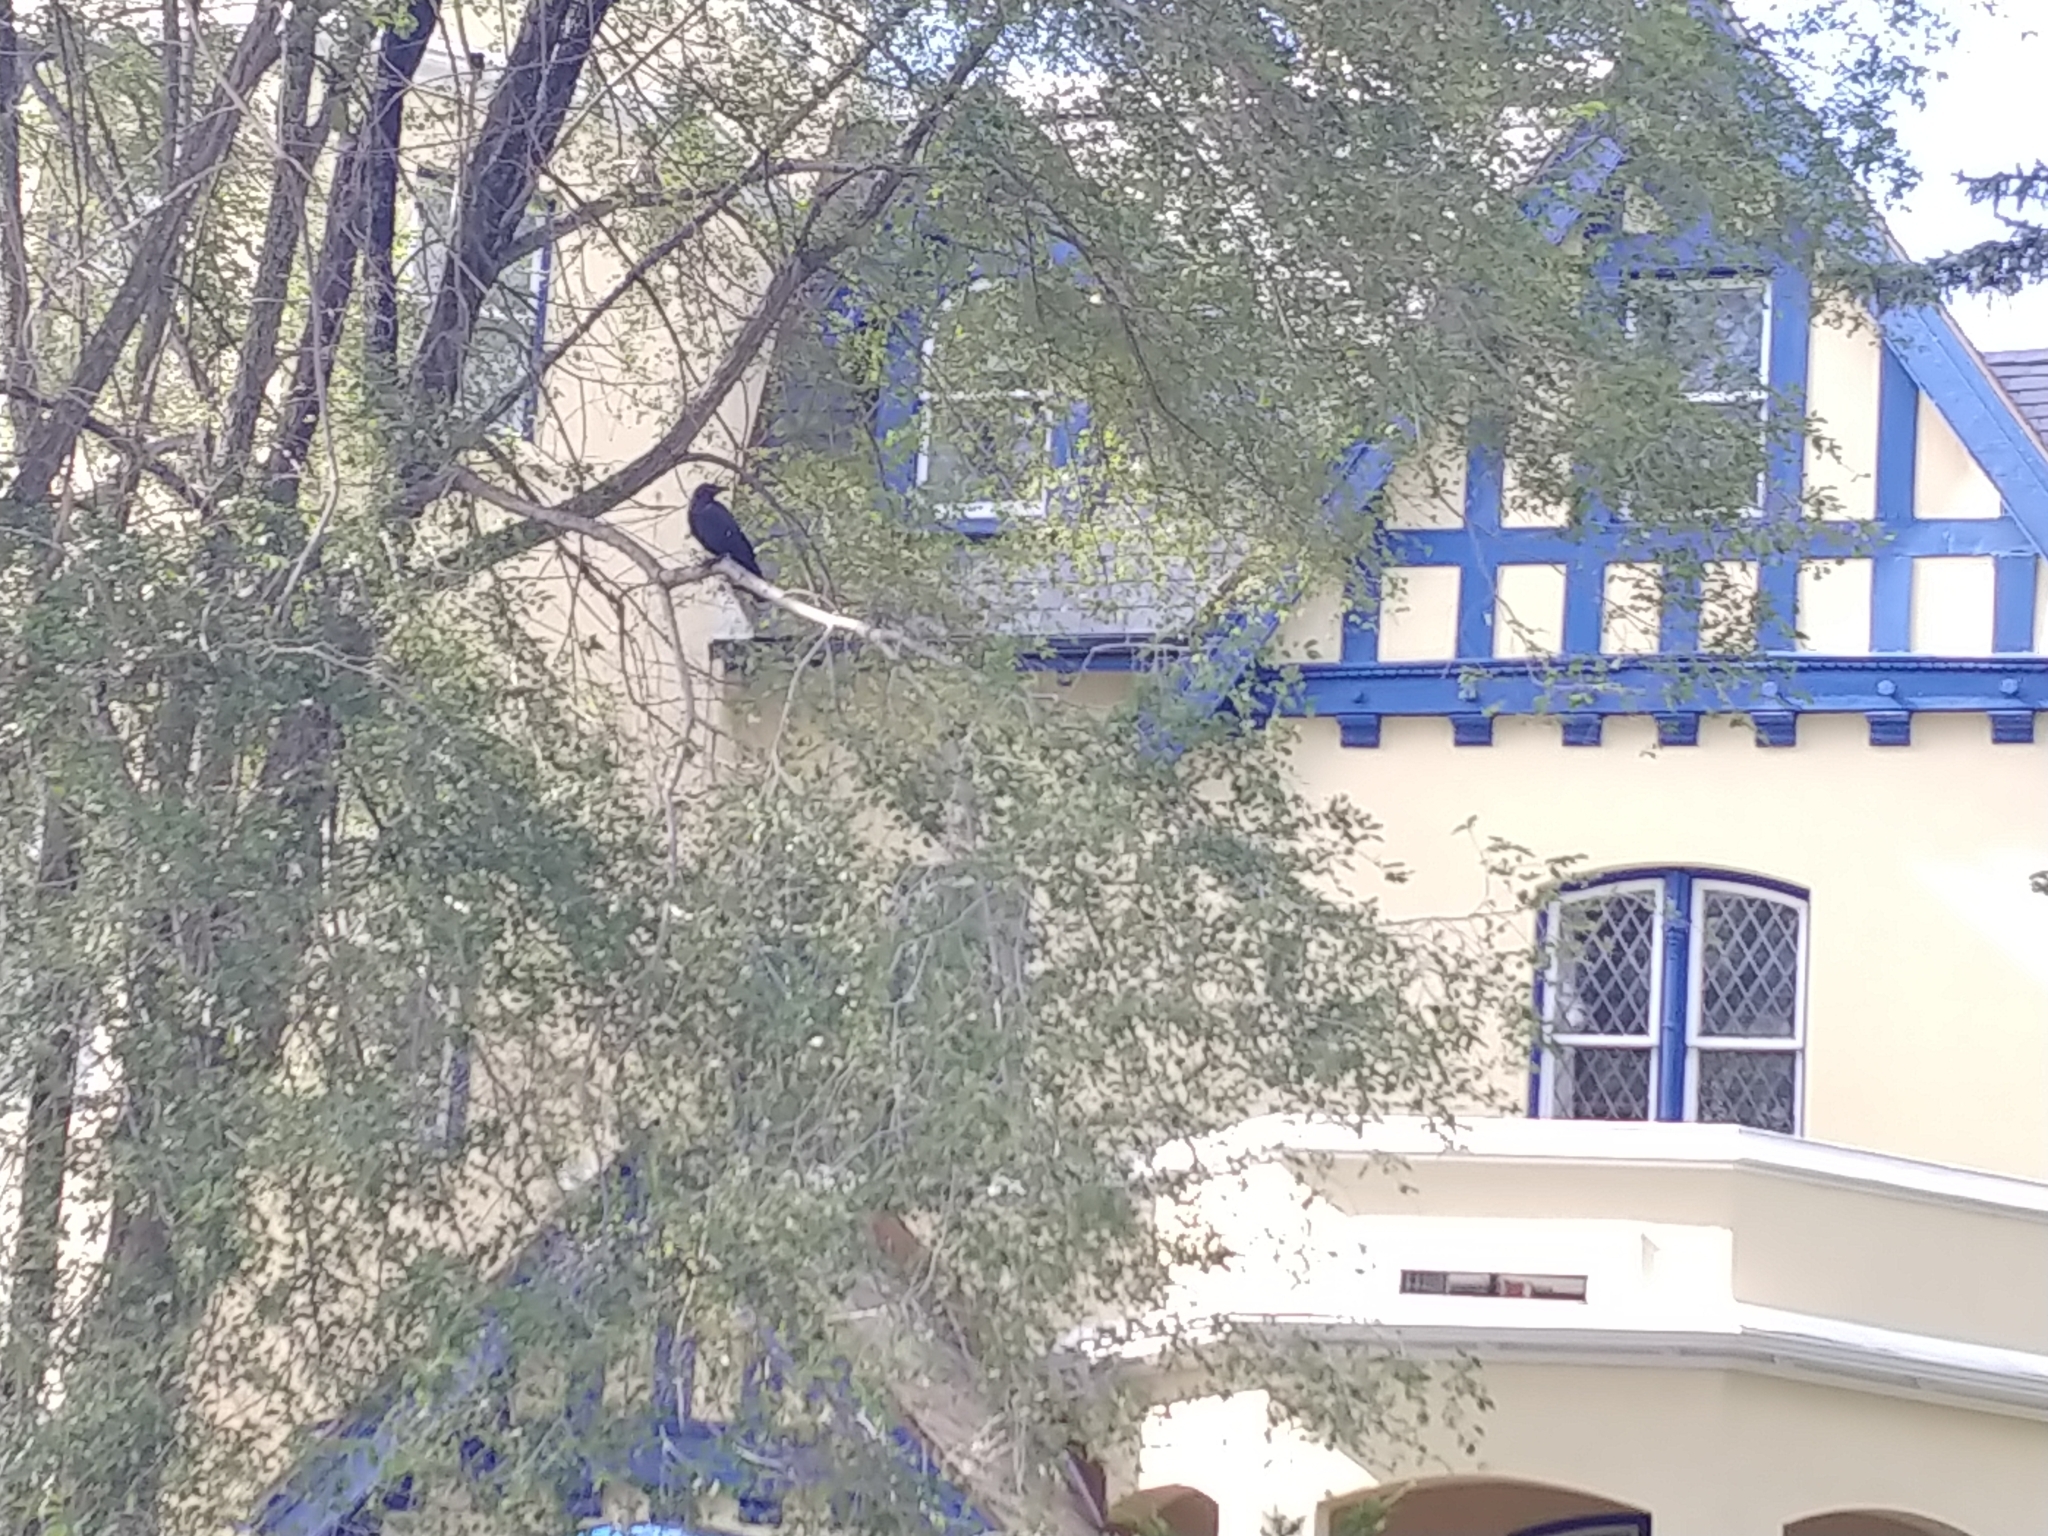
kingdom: Animalia
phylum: Chordata
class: Aves
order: Passeriformes
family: Corvidae
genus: Corvus
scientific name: Corvus brachyrhynchos
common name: American crow
